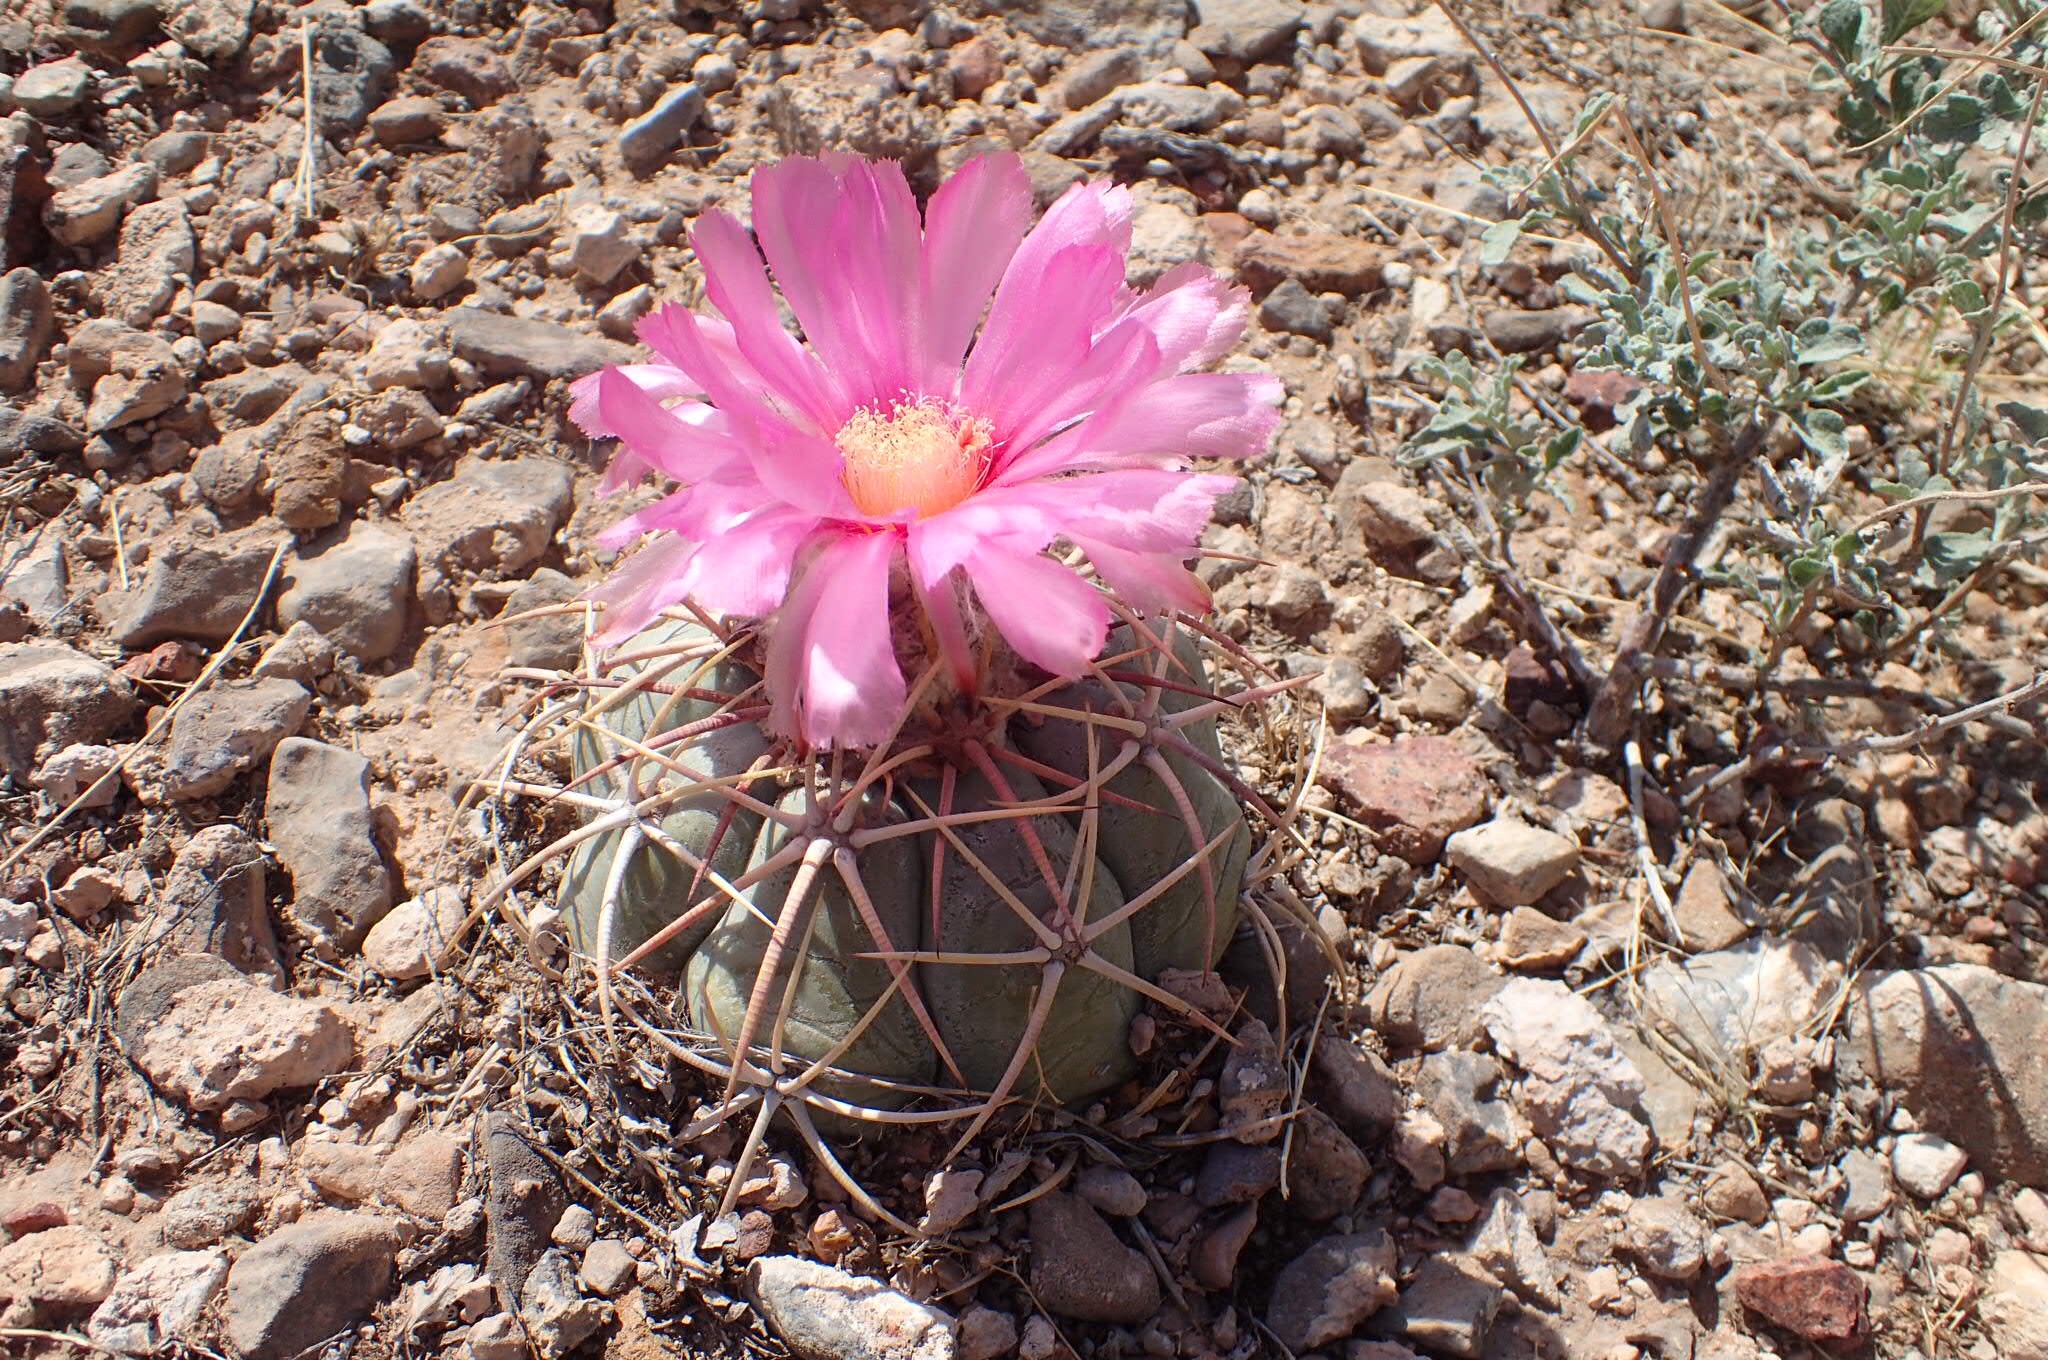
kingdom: Plantae
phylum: Tracheophyta
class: Magnoliopsida
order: Caryophyllales
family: Cactaceae
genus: Echinocactus
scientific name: Echinocactus horizonthalonius
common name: Devilshead
